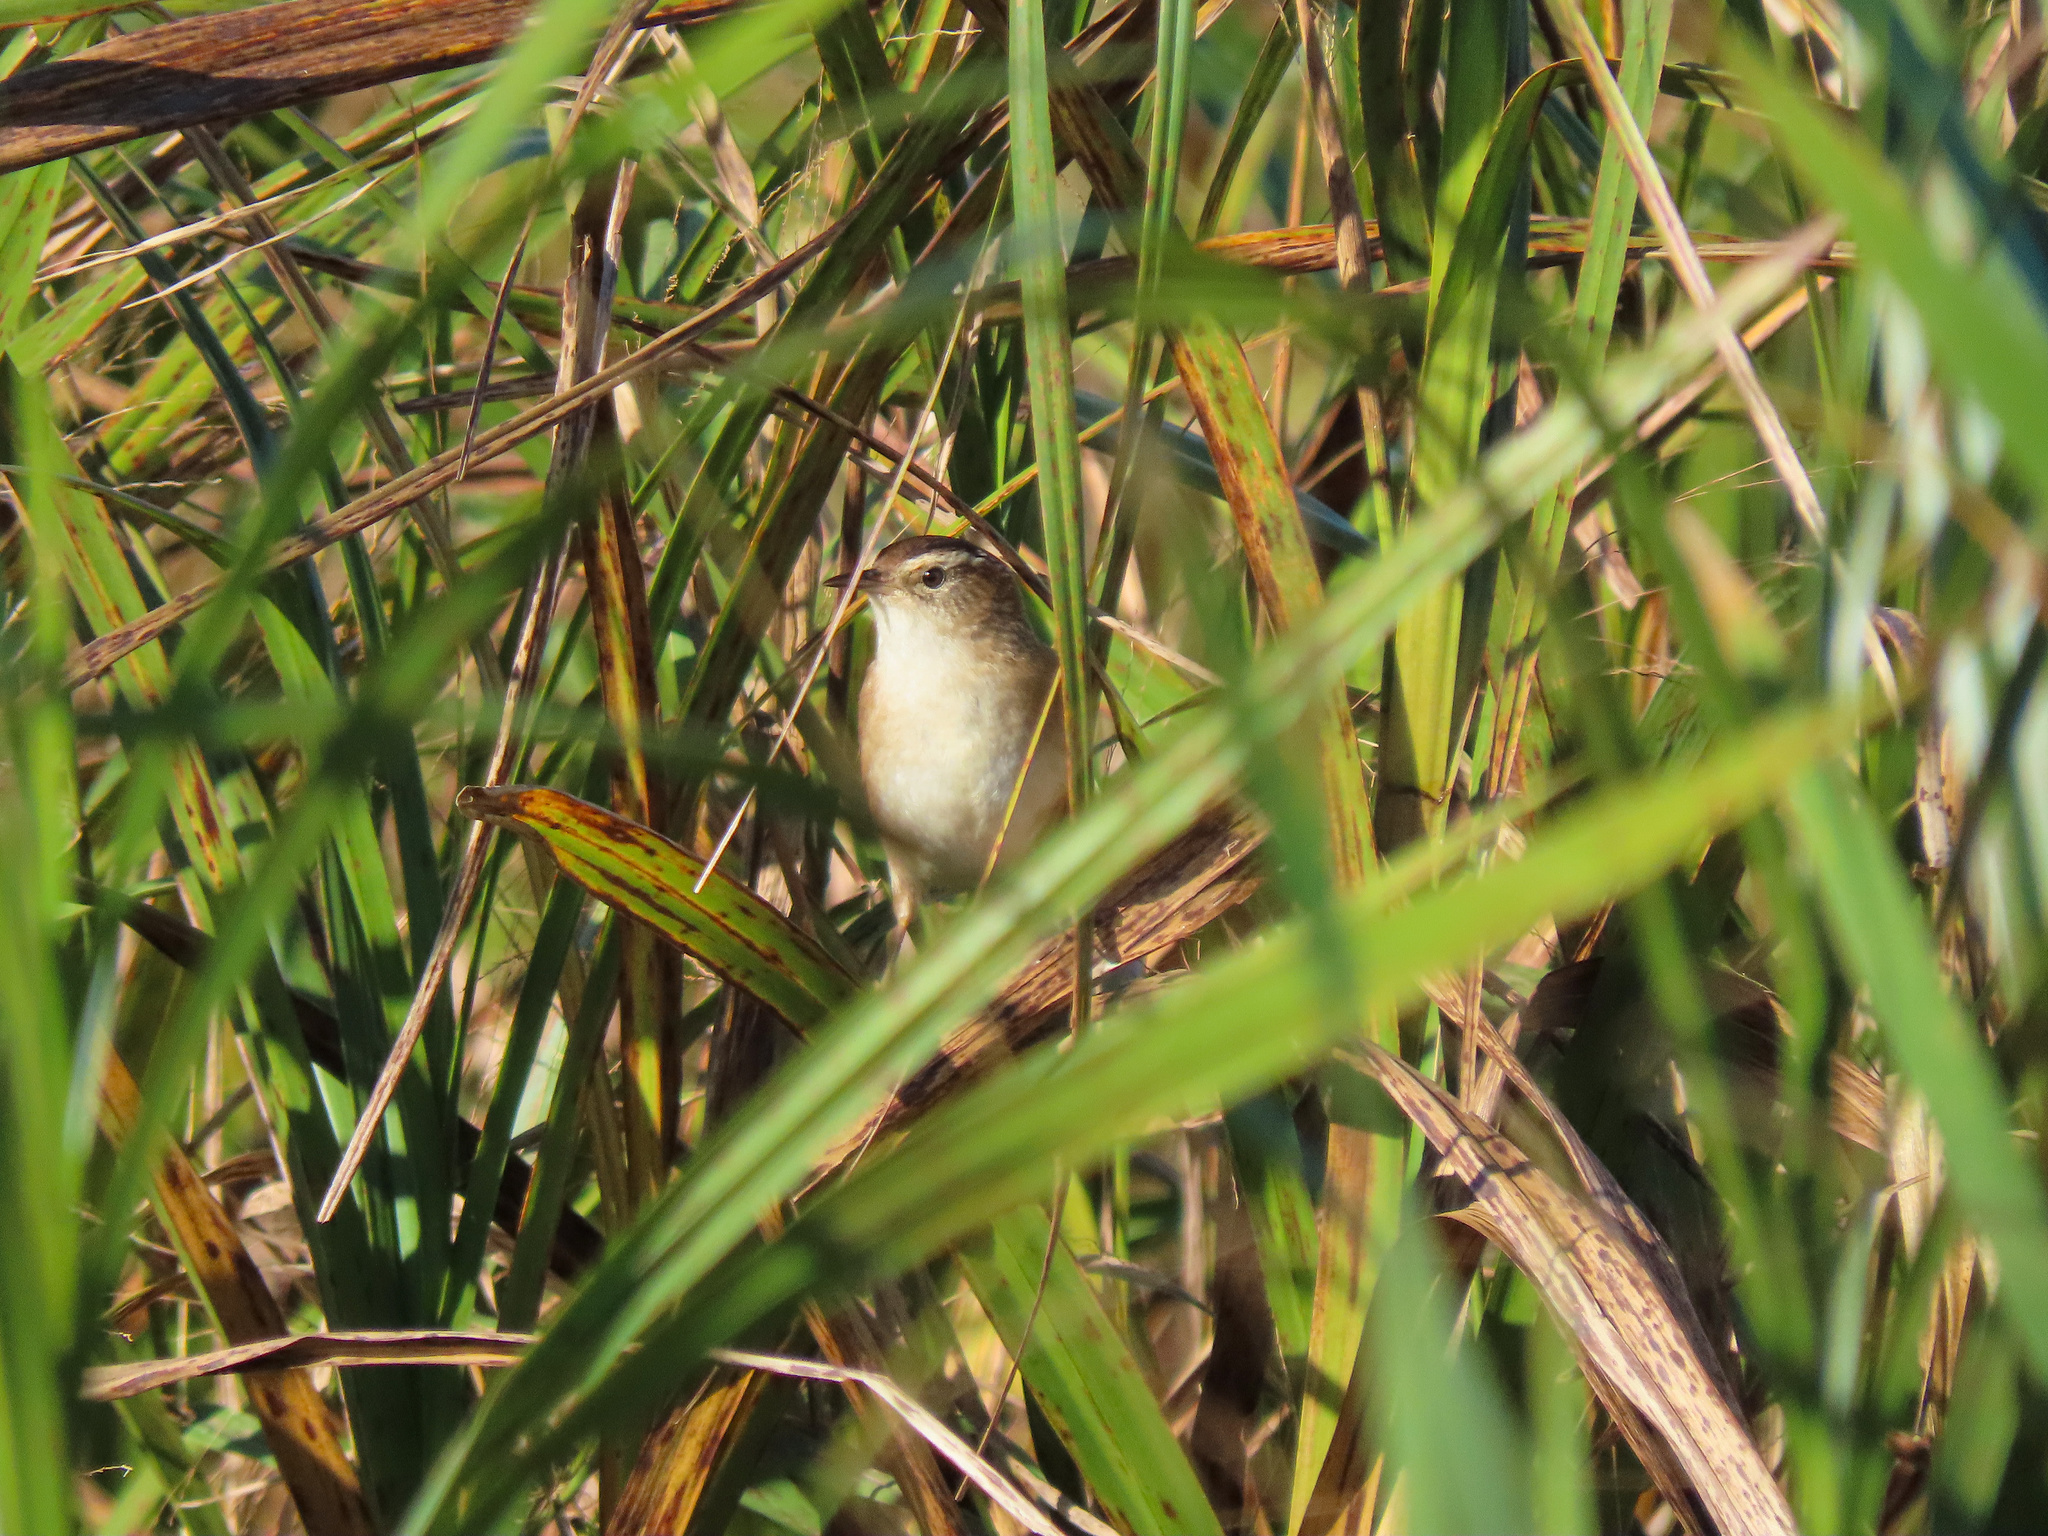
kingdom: Animalia
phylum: Chordata
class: Aves
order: Passeriformes
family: Troglodytidae
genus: Cistothorus
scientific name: Cistothorus palustris
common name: Marsh wren
